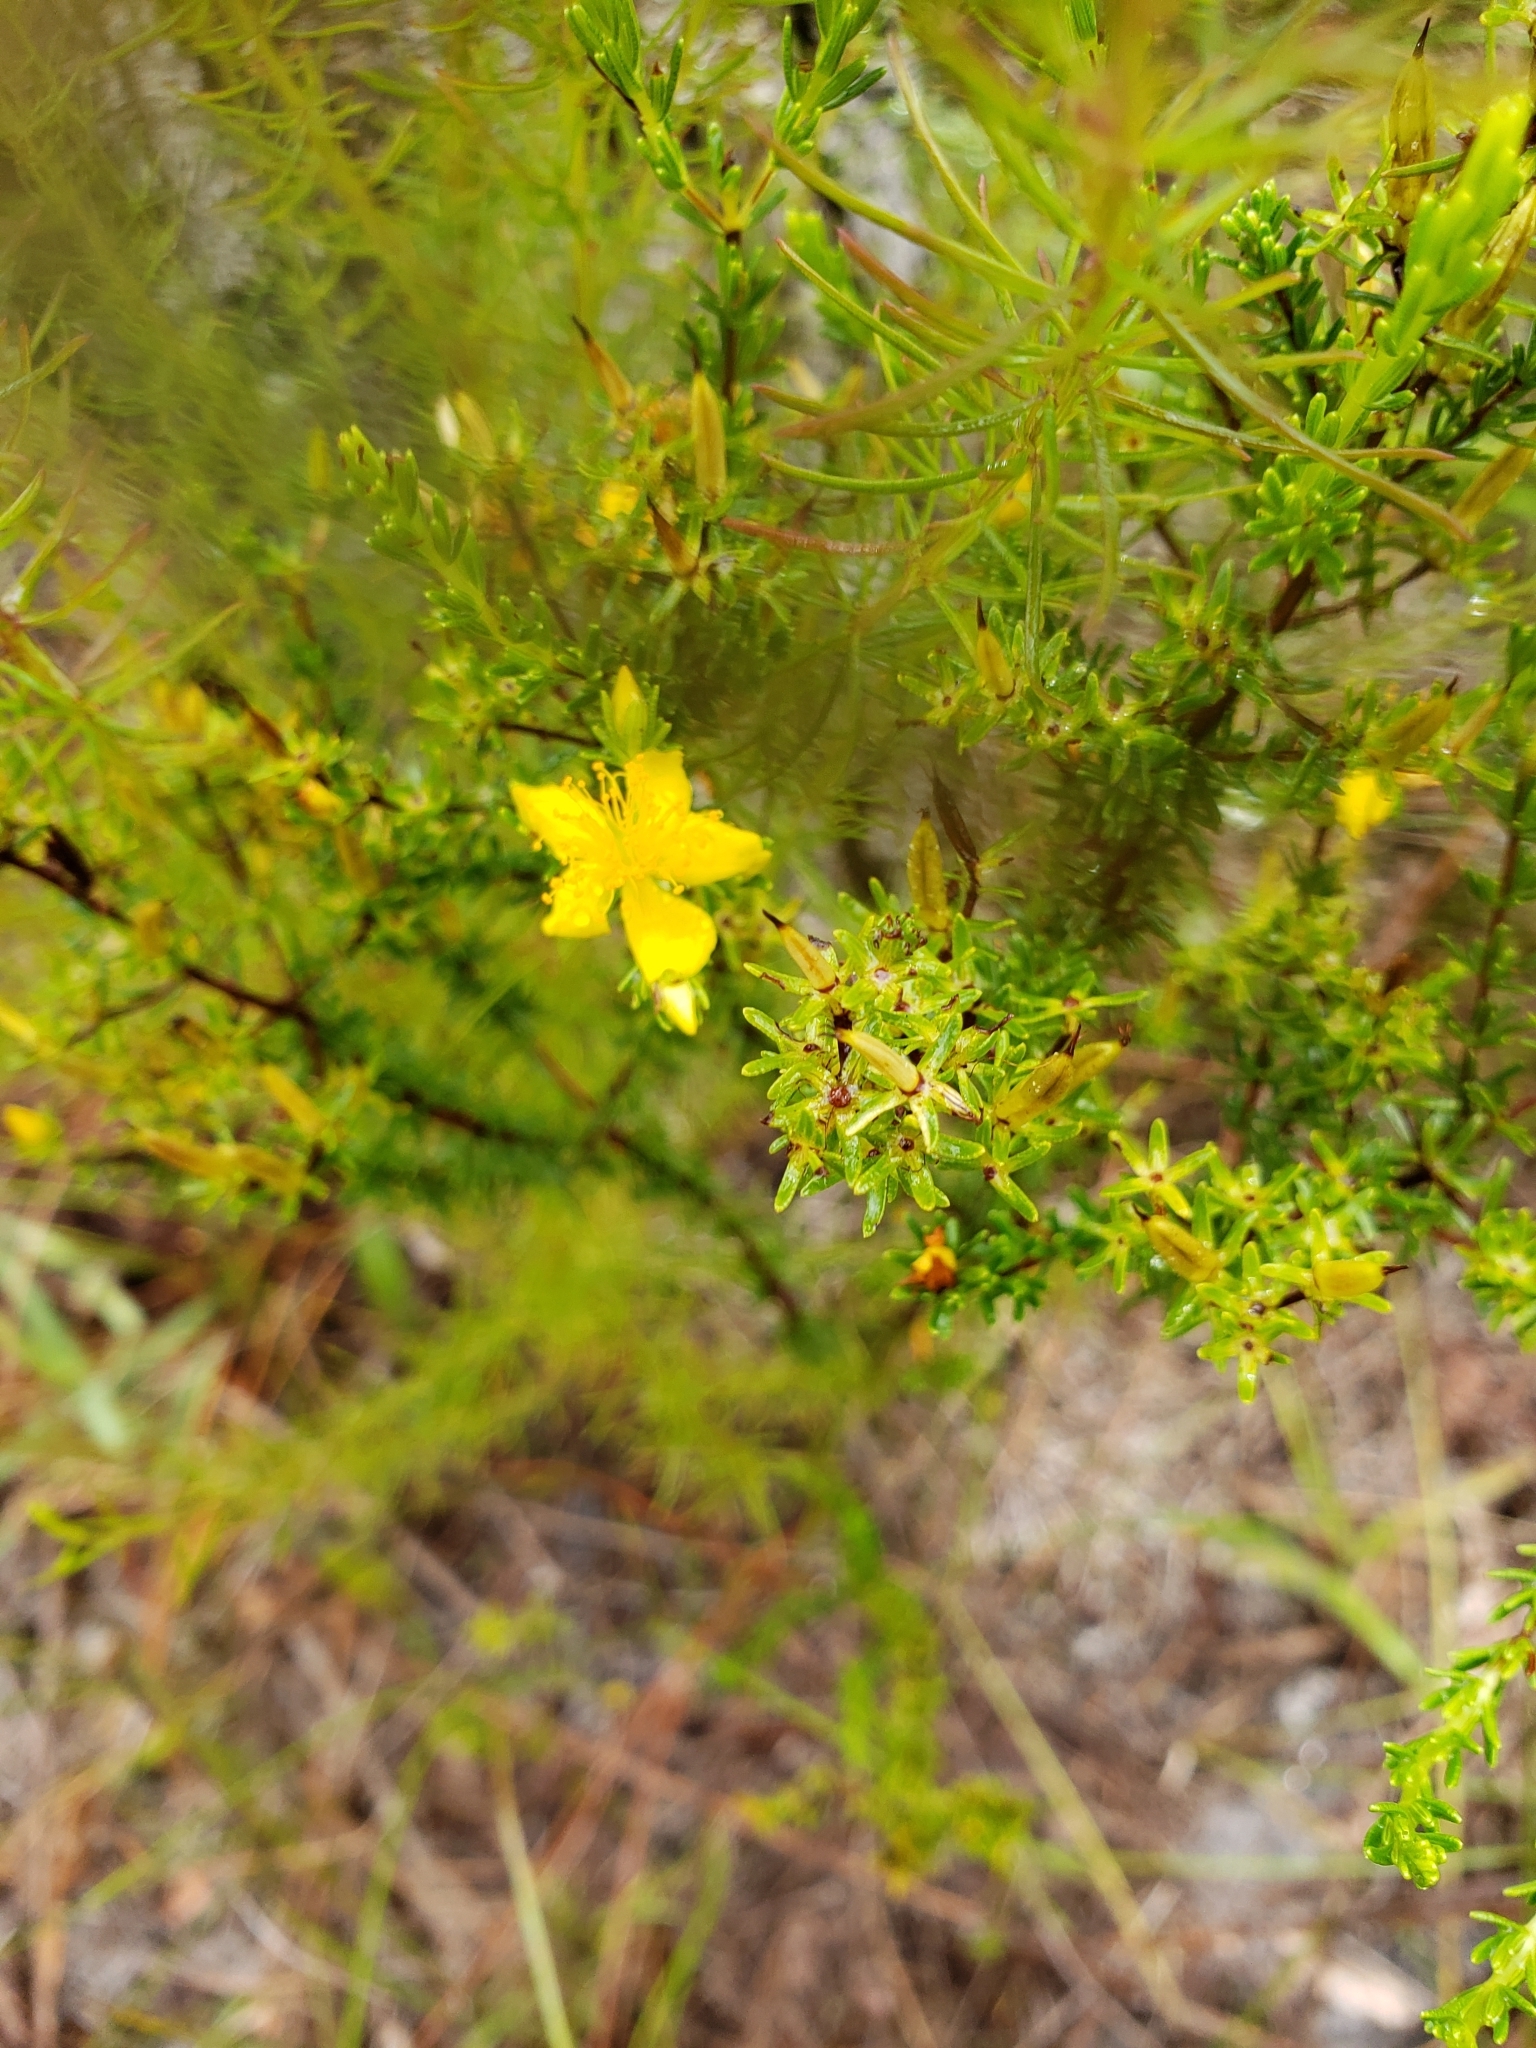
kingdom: Plantae
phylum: Tracheophyta
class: Magnoliopsida
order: Malpighiales
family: Hypericaceae
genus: Hypericum
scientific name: Hypericum tenuifolium
